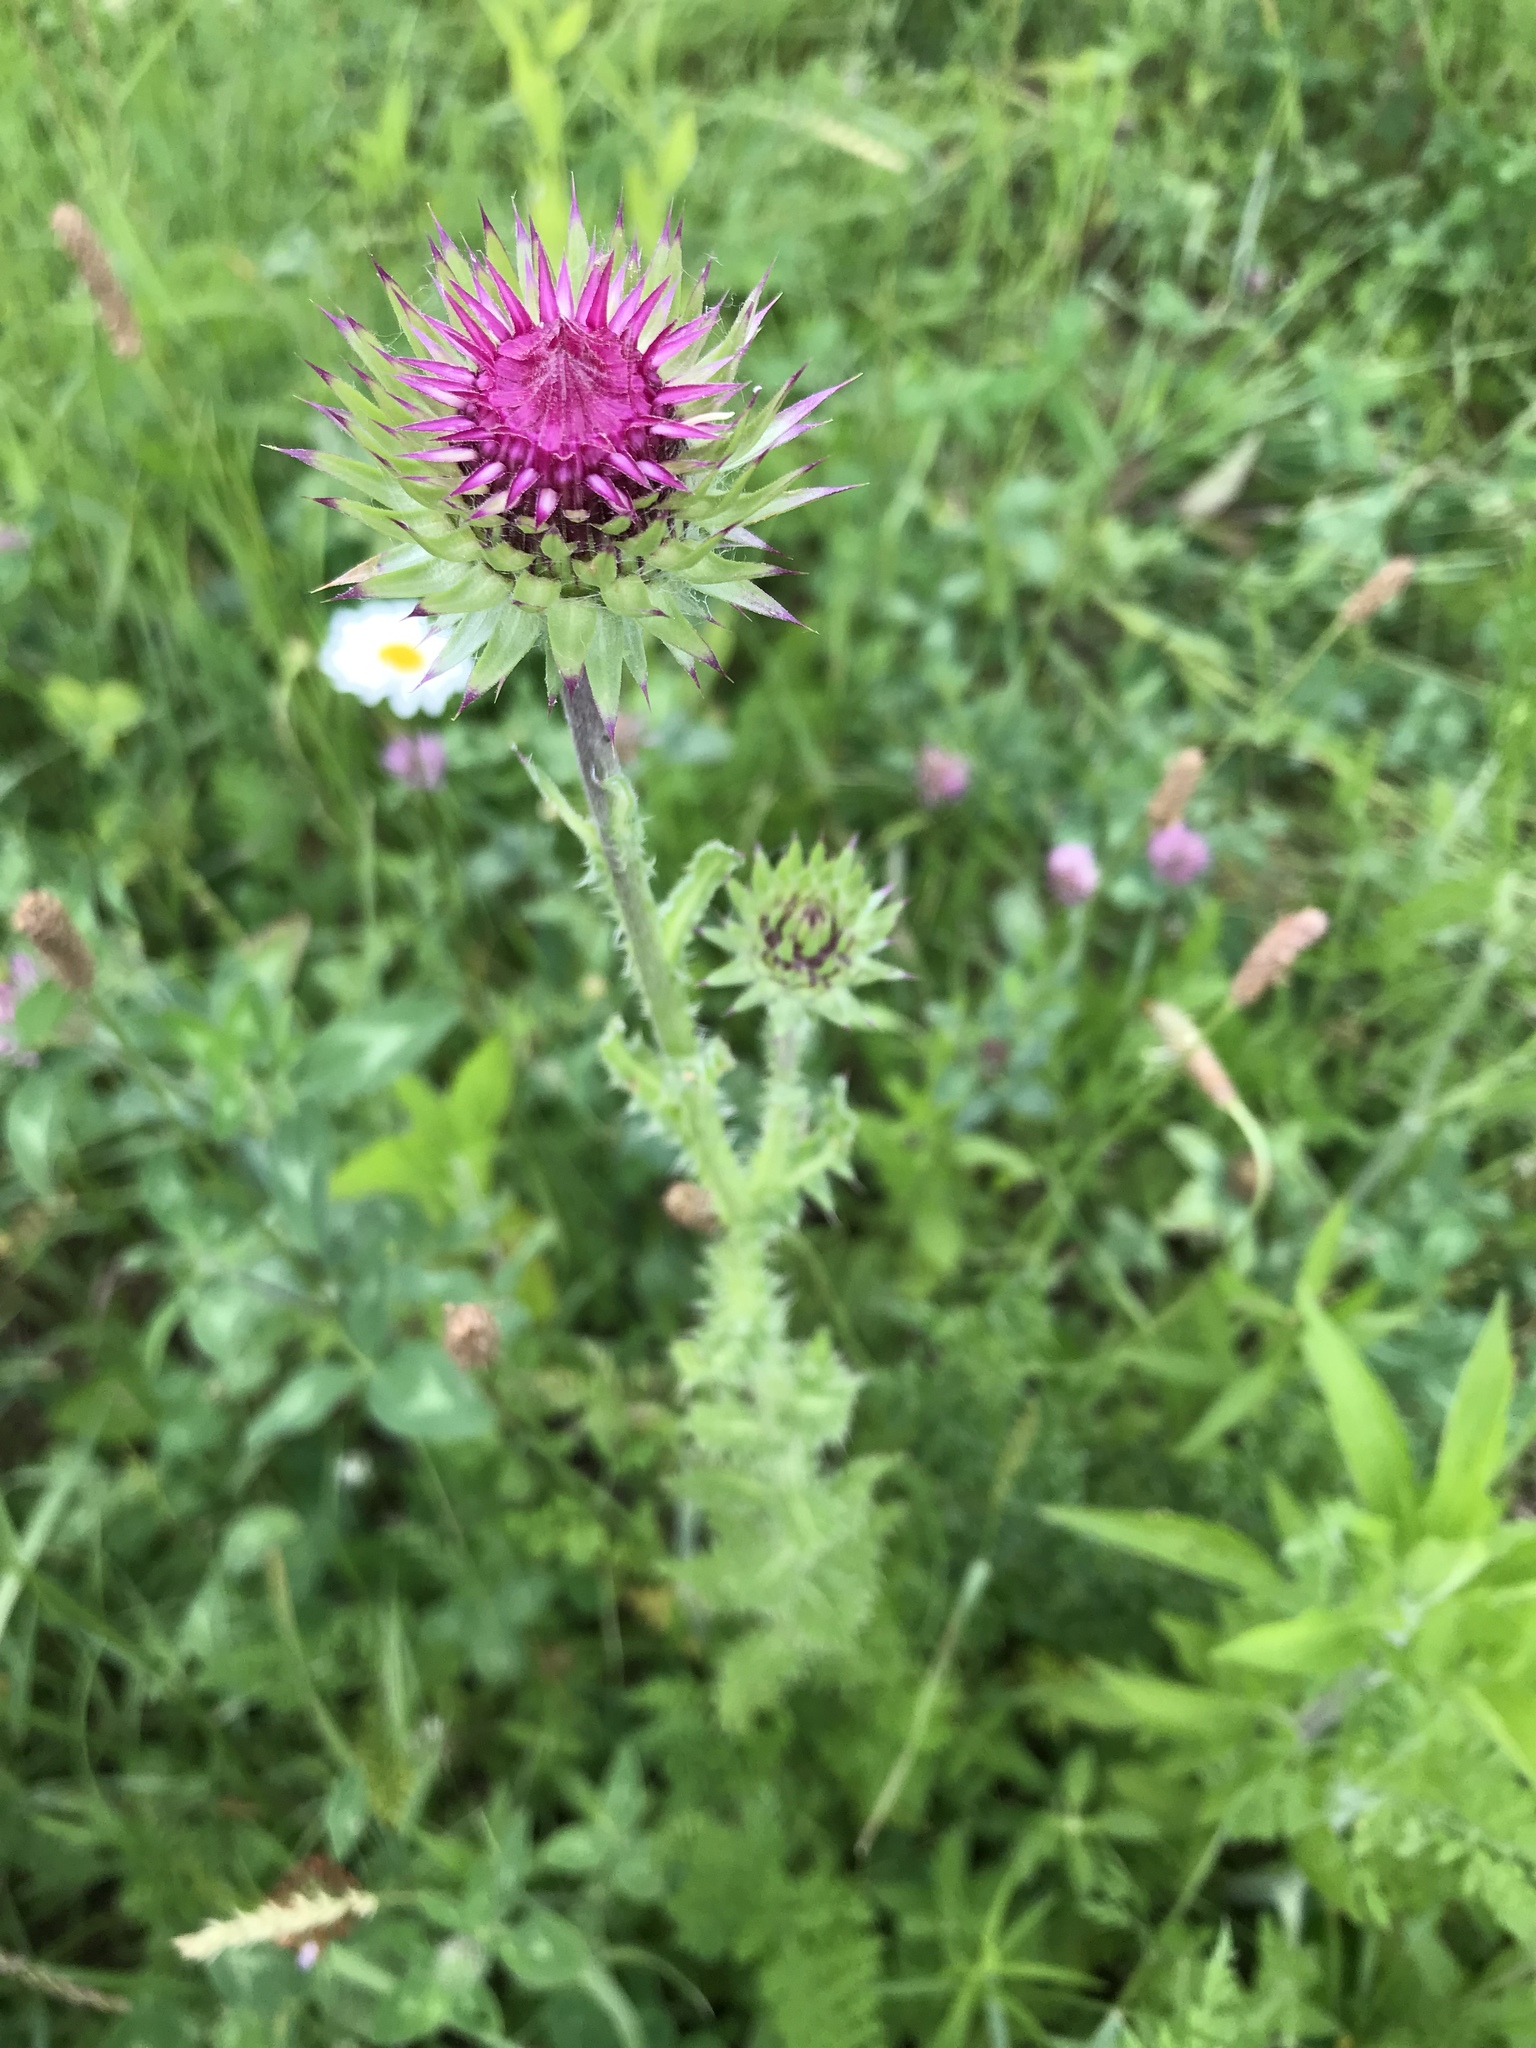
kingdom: Plantae
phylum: Tracheophyta
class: Magnoliopsida
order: Asterales
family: Asteraceae
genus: Carduus
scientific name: Carduus nutans
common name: Musk thistle
